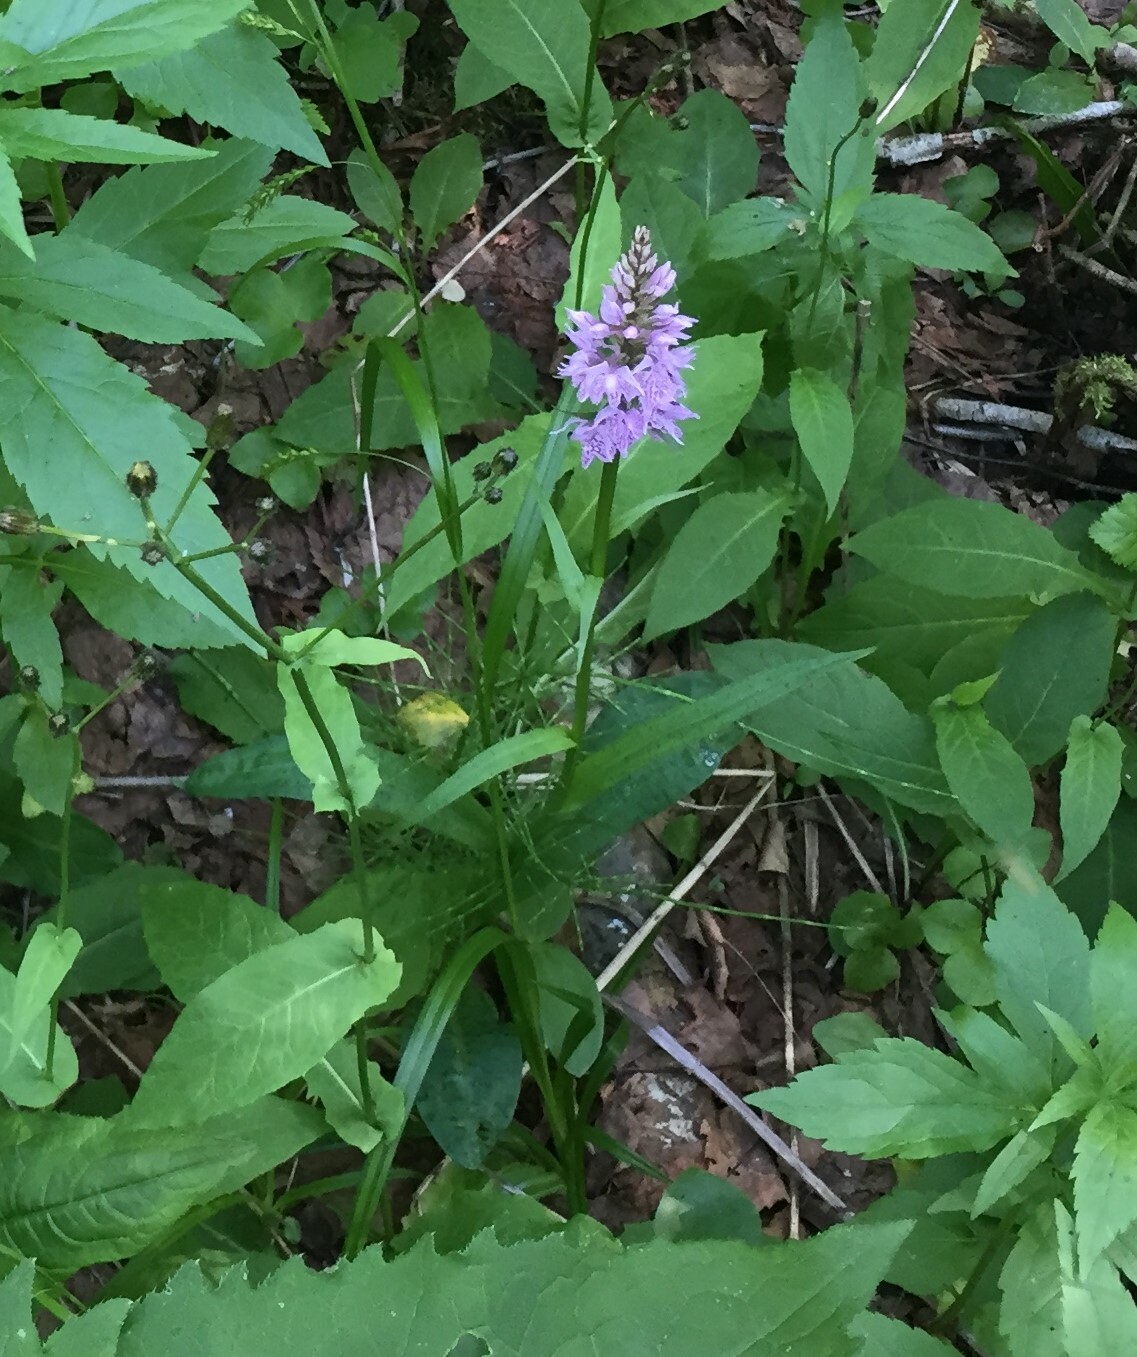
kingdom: Plantae
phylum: Tracheophyta
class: Liliopsida
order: Asparagales
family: Orchidaceae
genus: Dactylorhiza
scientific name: Dactylorhiza maculata
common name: Heath spotted-orchid
